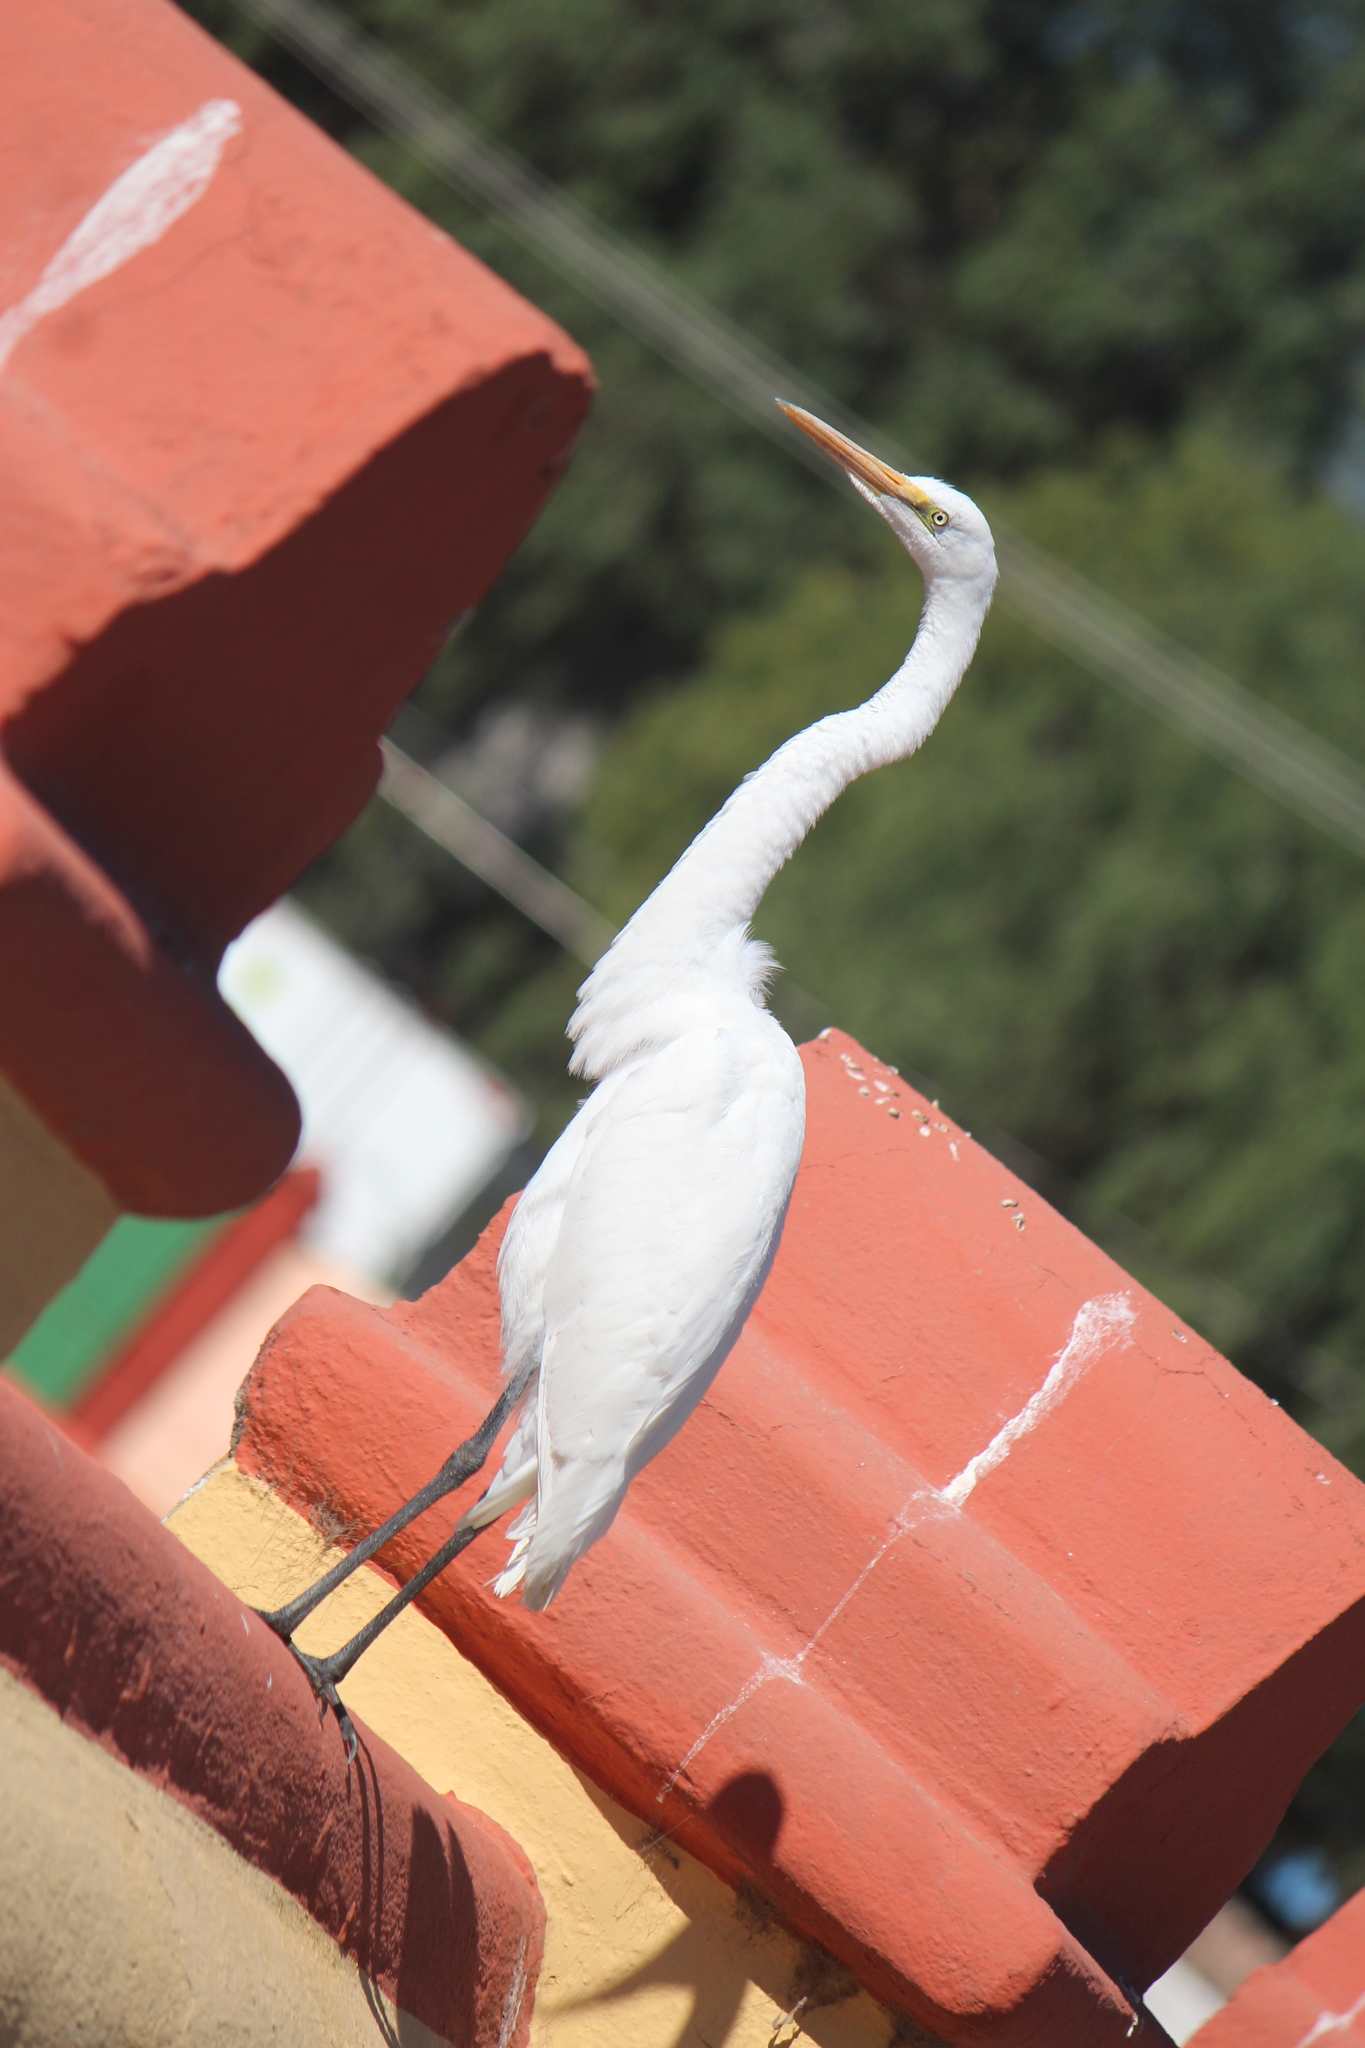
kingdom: Animalia
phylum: Chordata
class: Aves
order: Pelecaniformes
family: Ardeidae
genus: Ardea
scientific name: Ardea alba
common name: Great egret
